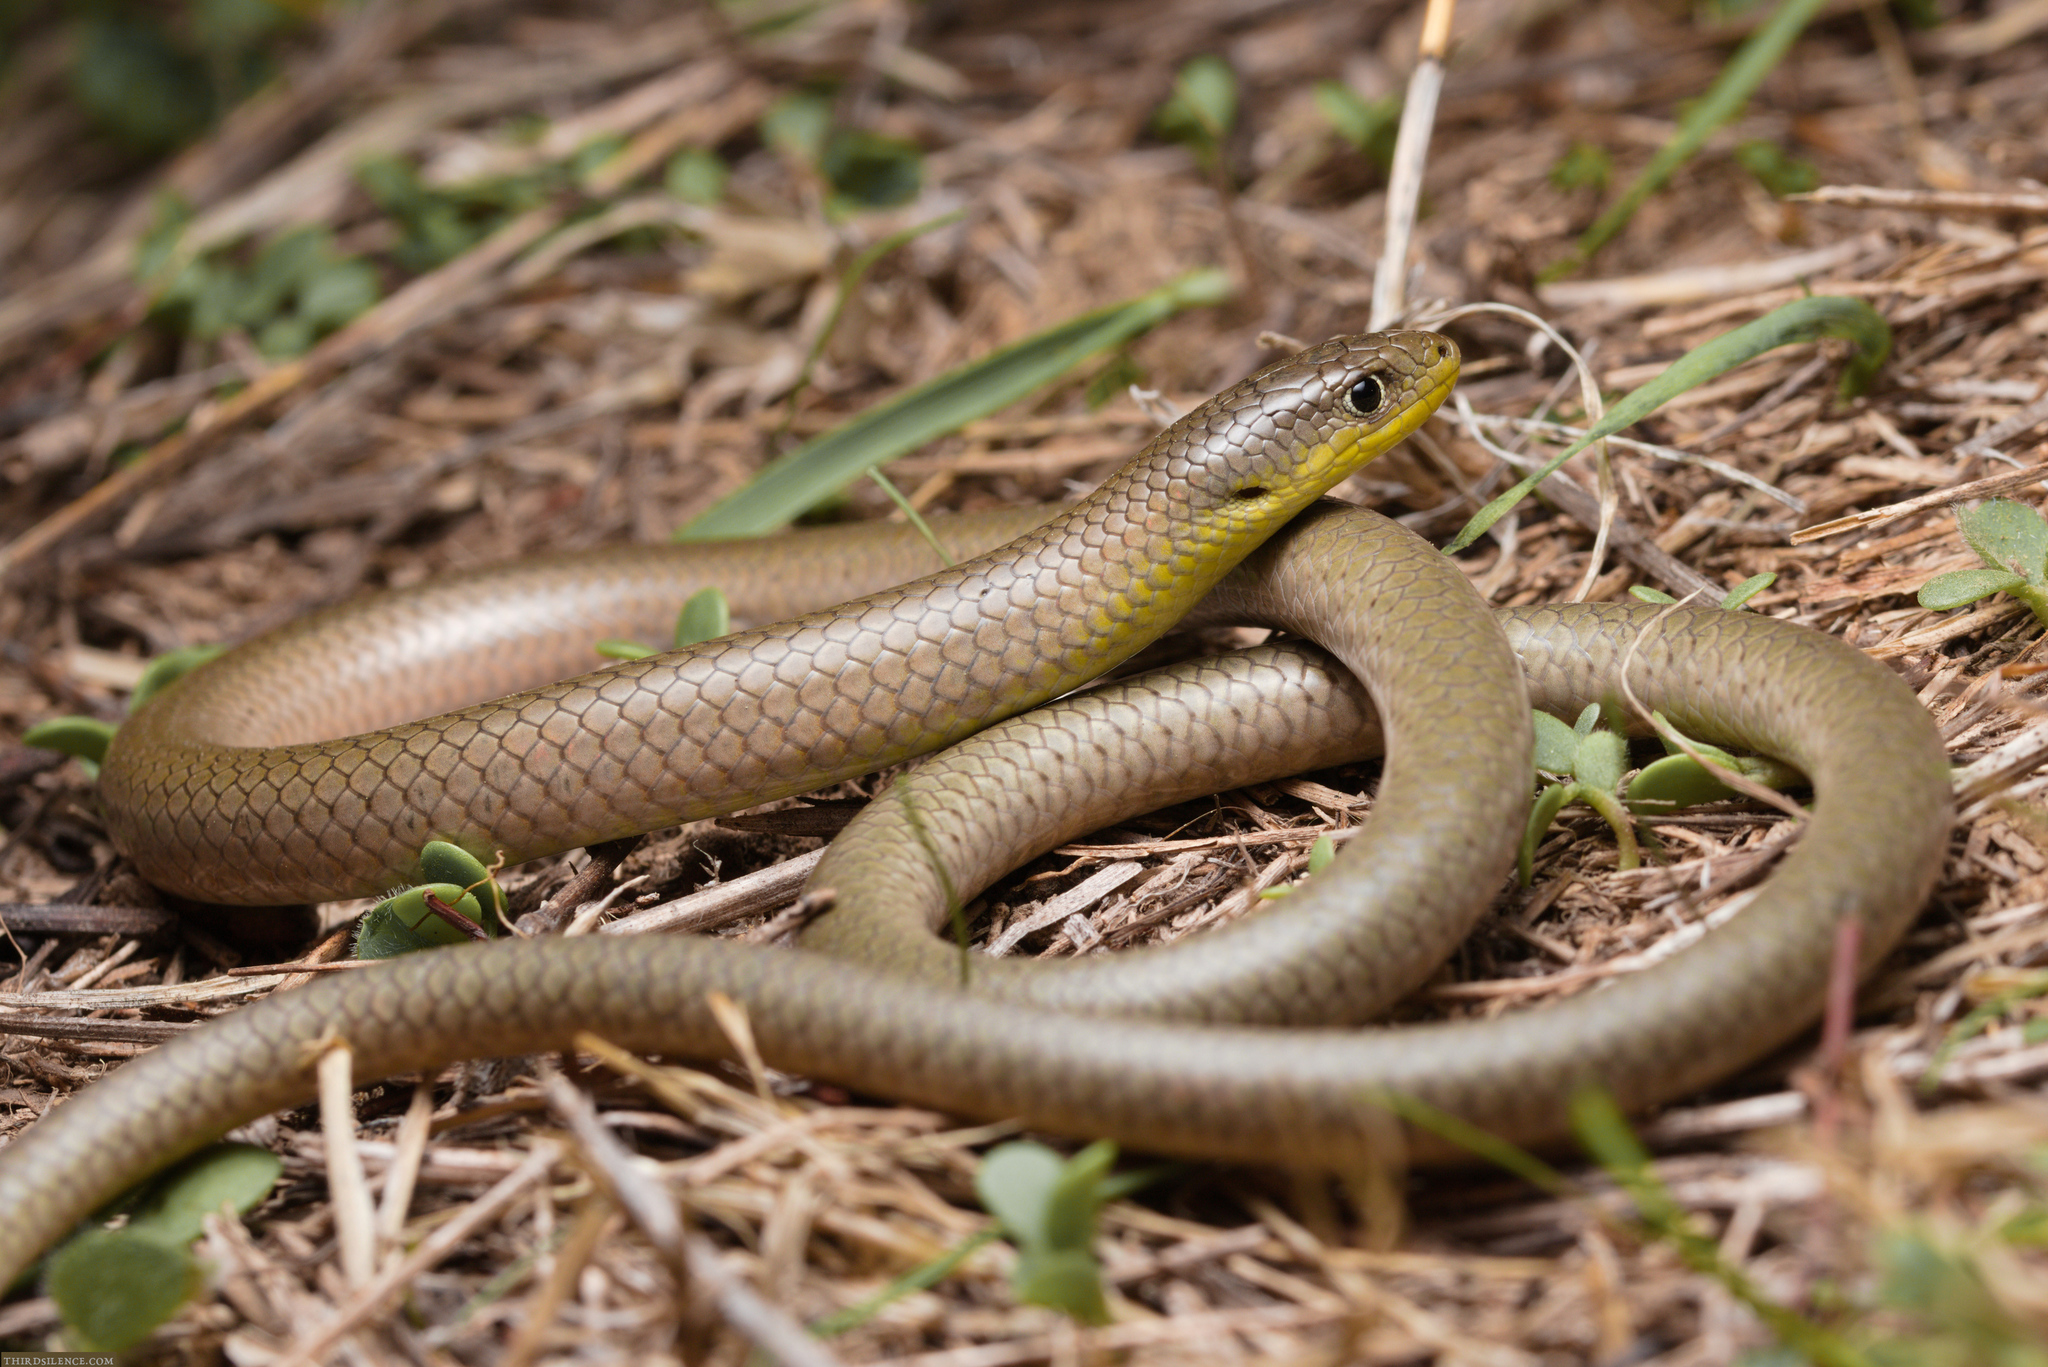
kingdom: Animalia
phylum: Chordata
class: Squamata
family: Pygopodidae
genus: Delma
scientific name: Delma inornata
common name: Patternless delma
